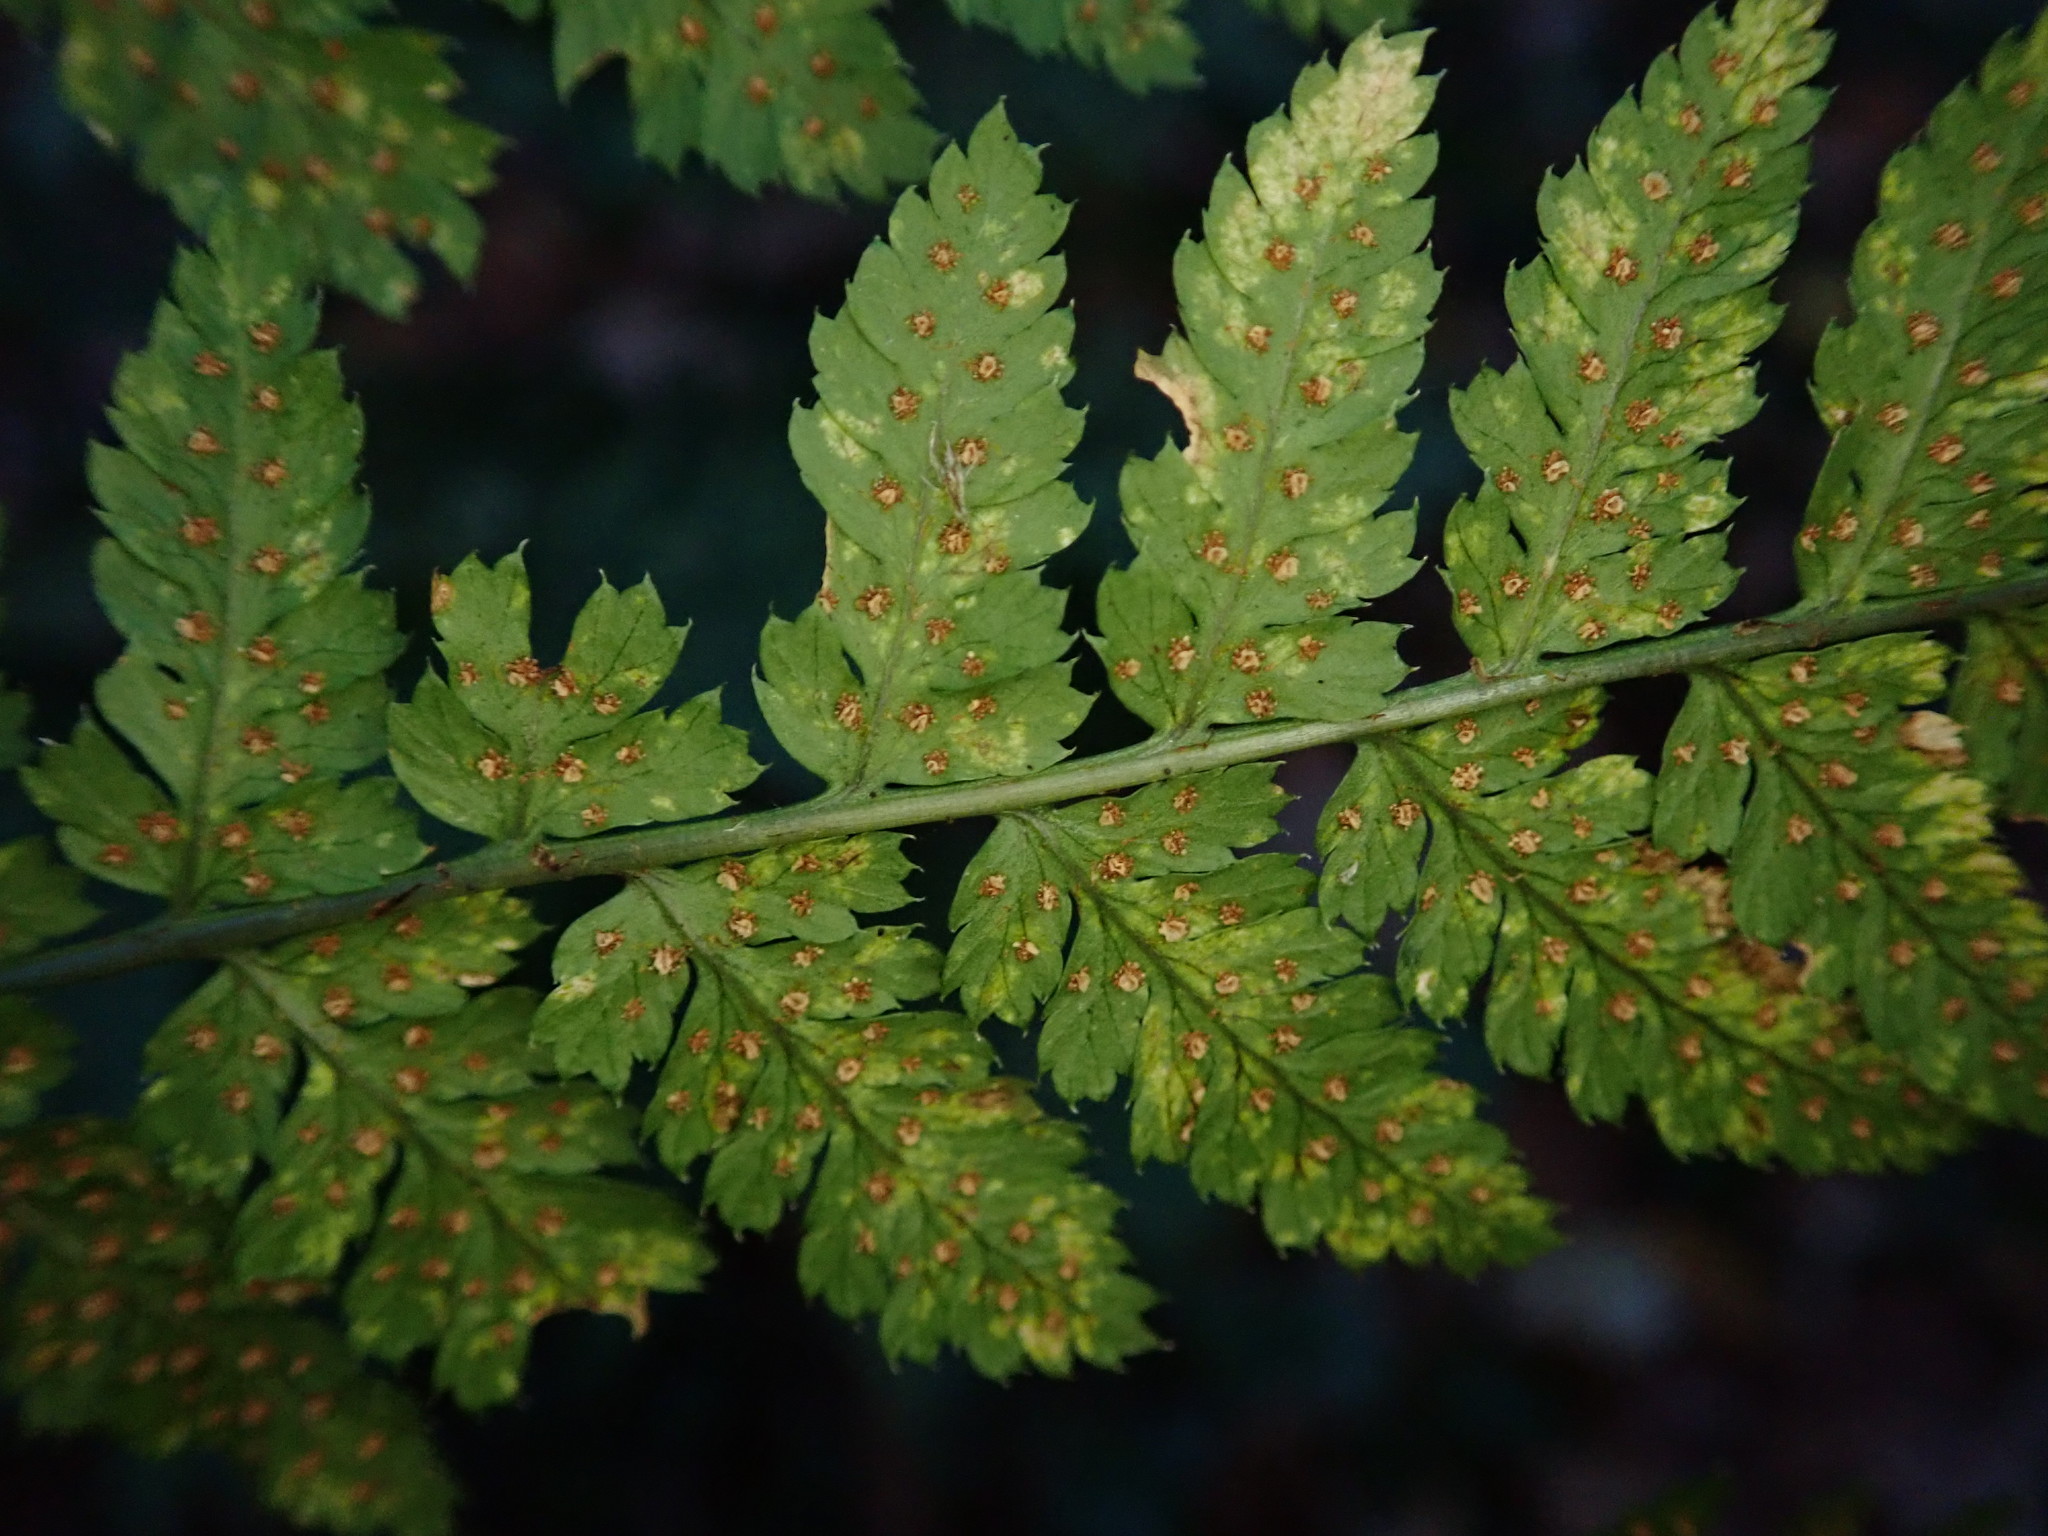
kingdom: Plantae
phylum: Tracheophyta
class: Polypodiopsida
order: Polypodiales
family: Dryopteridaceae
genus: Dryopteris
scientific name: Dryopteris dilatata
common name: Broad buckler-fern
